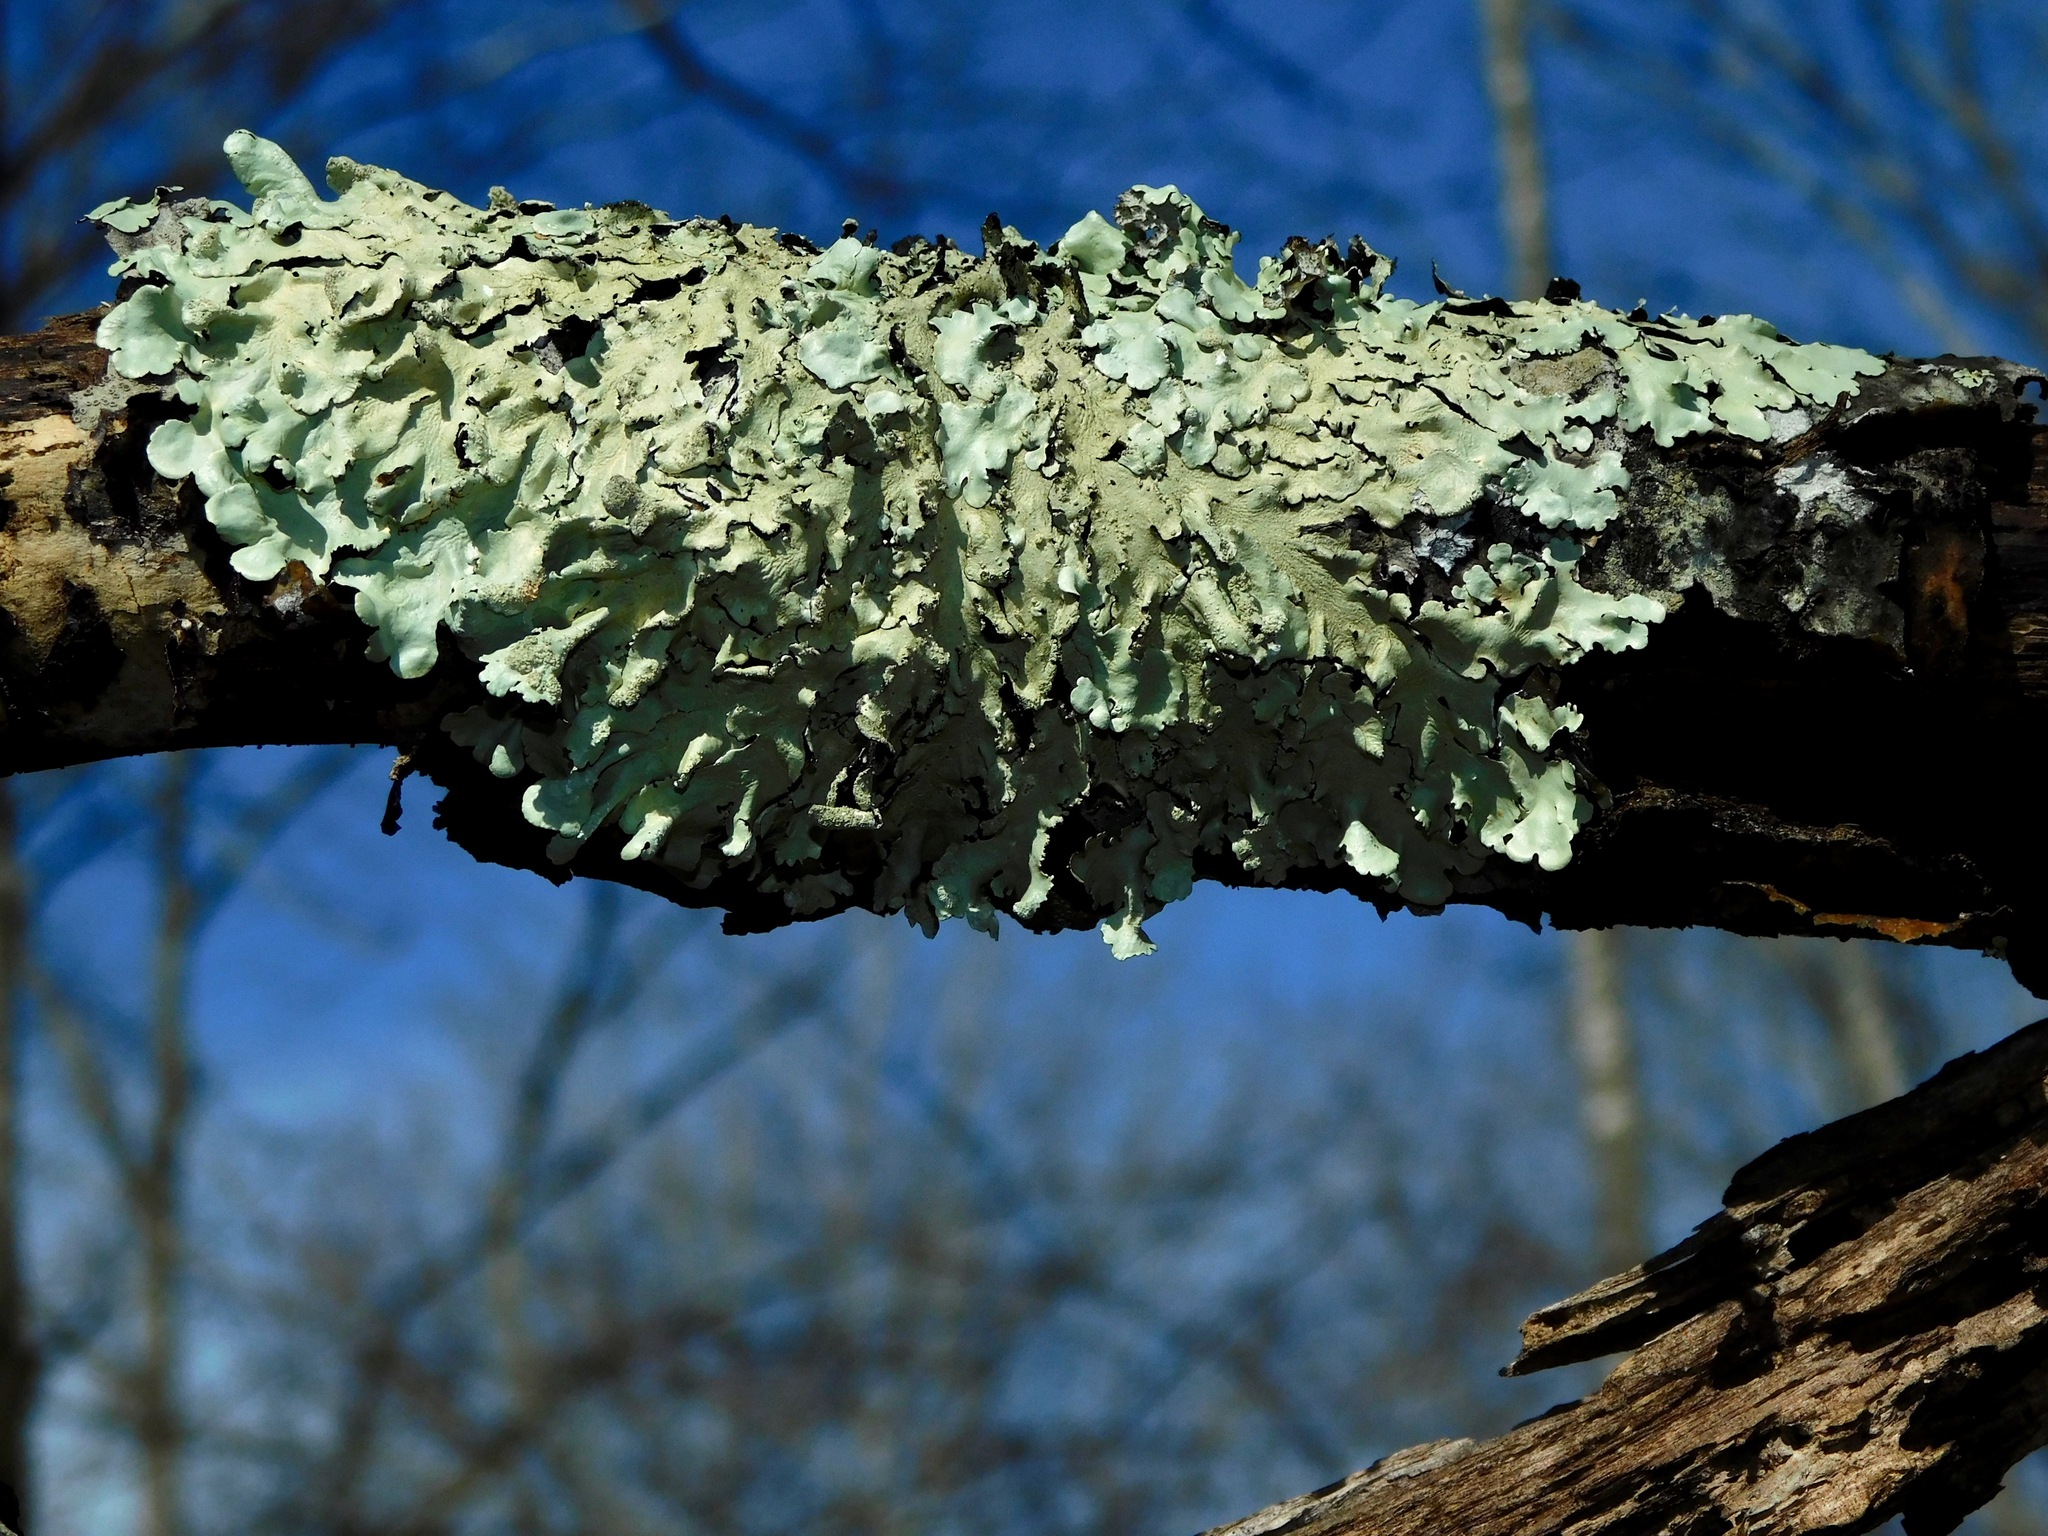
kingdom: Fungi
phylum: Ascomycota
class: Lecanoromycetes
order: Lecanorales
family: Parmeliaceae
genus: Flavoparmelia
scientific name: Flavoparmelia caperata
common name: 40-mile per hour lichen
